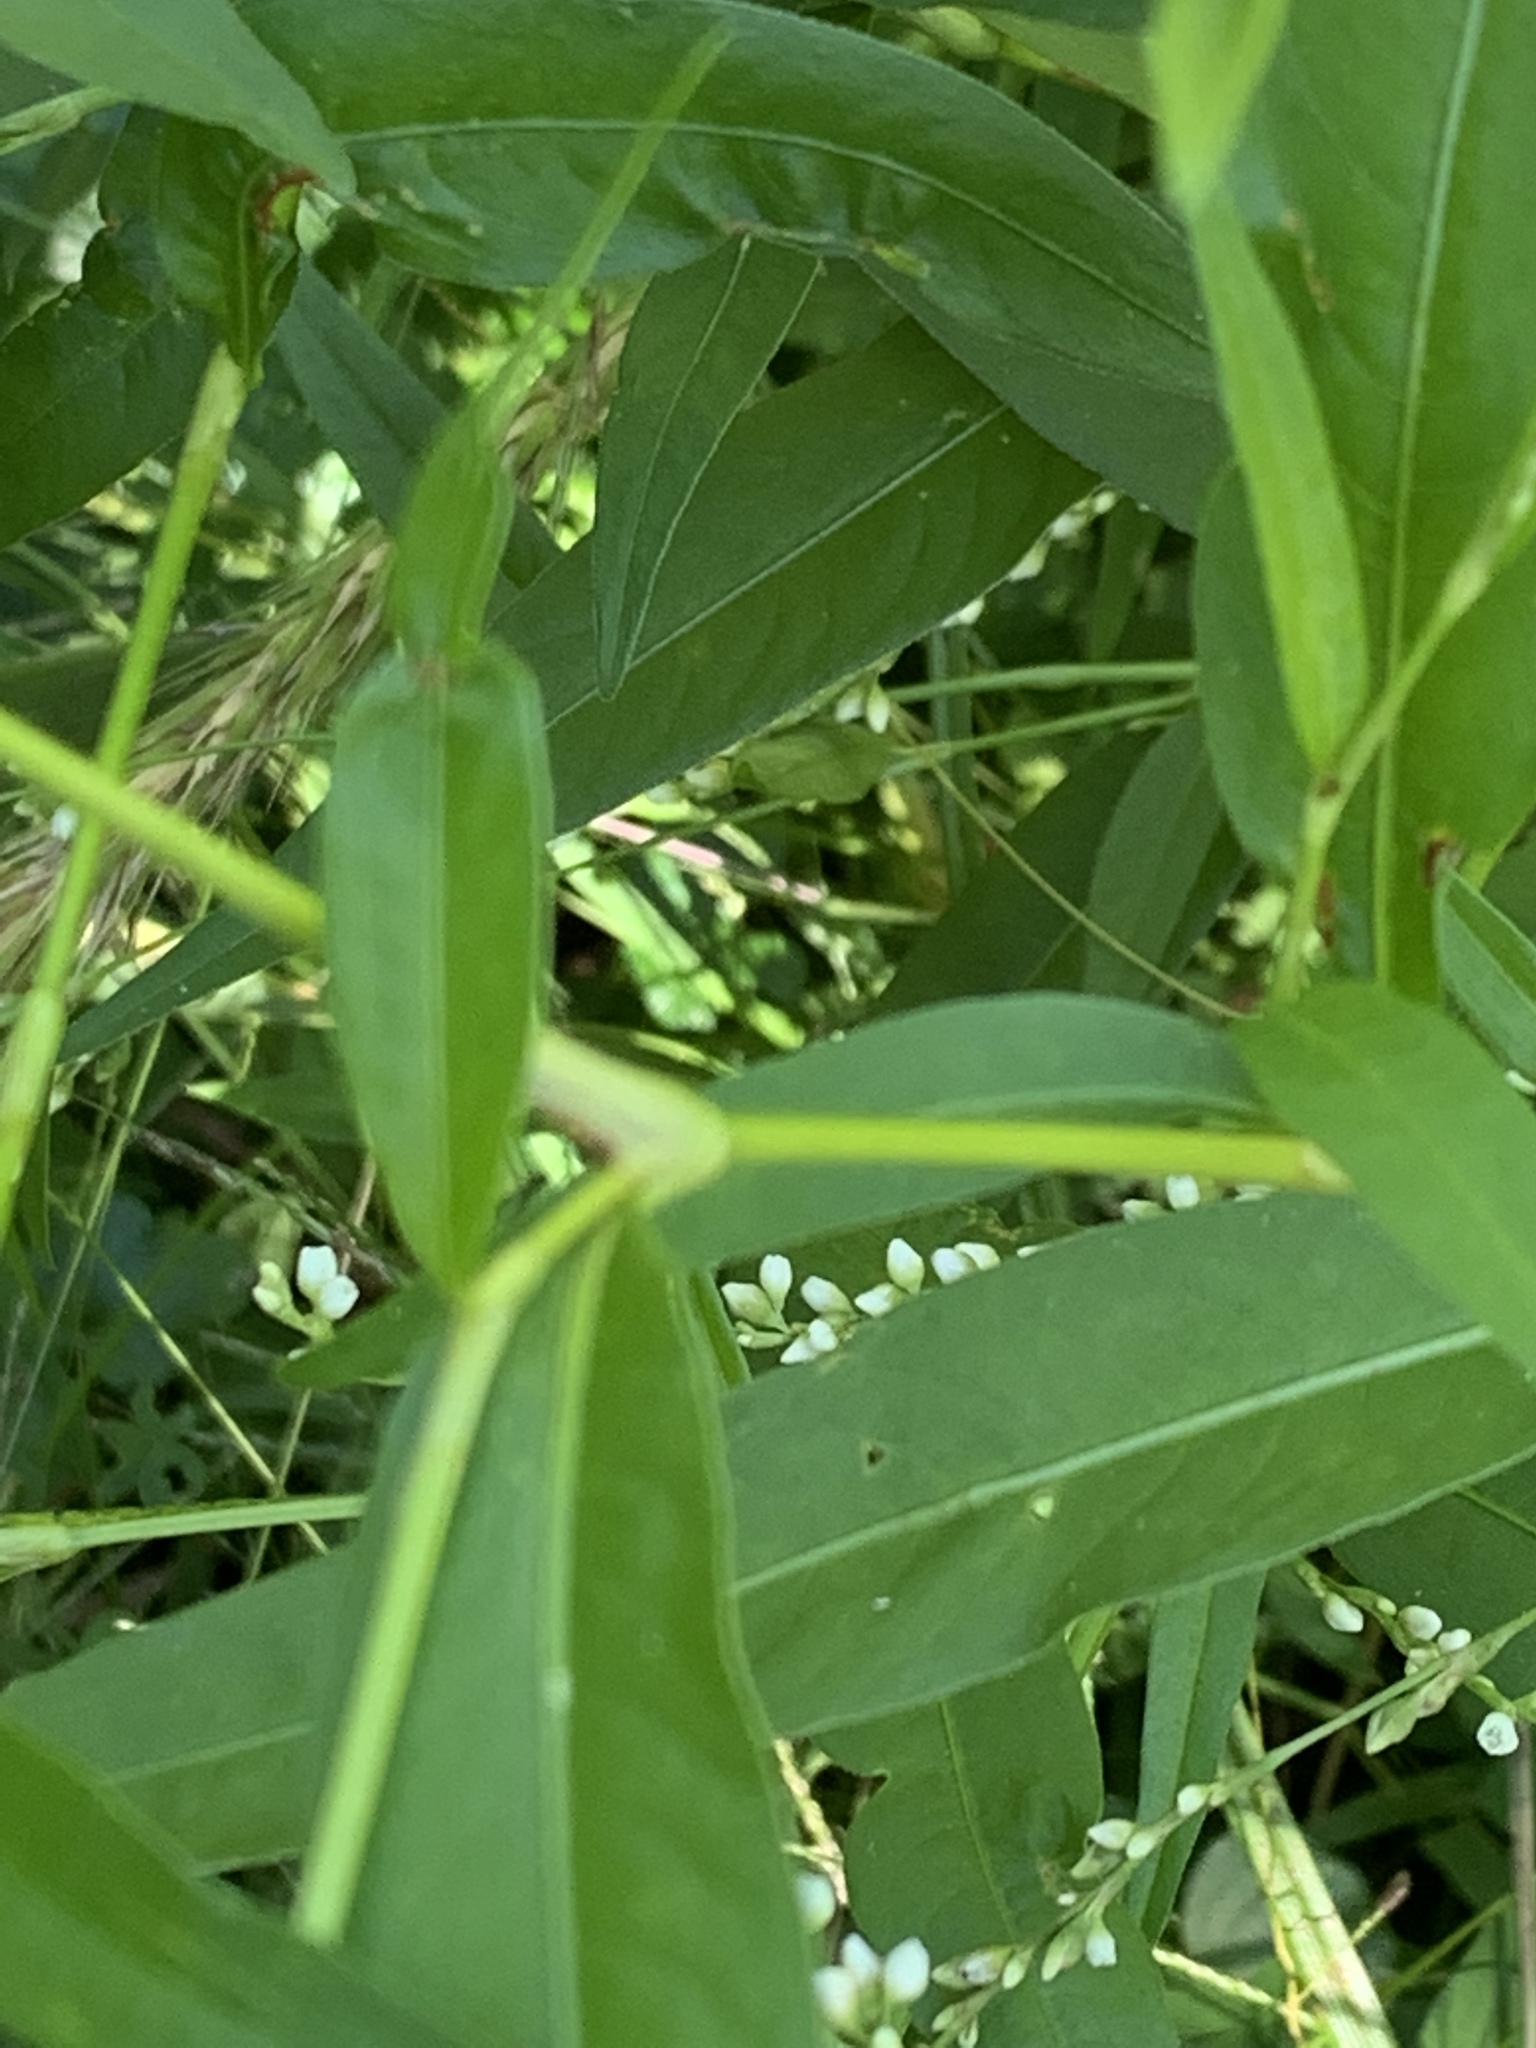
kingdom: Plantae
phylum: Tracheophyta
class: Magnoliopsida
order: Caryophyllales
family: Polygonaceae
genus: Persicaria
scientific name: Persicaria punctata
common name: Dotted smartweed
